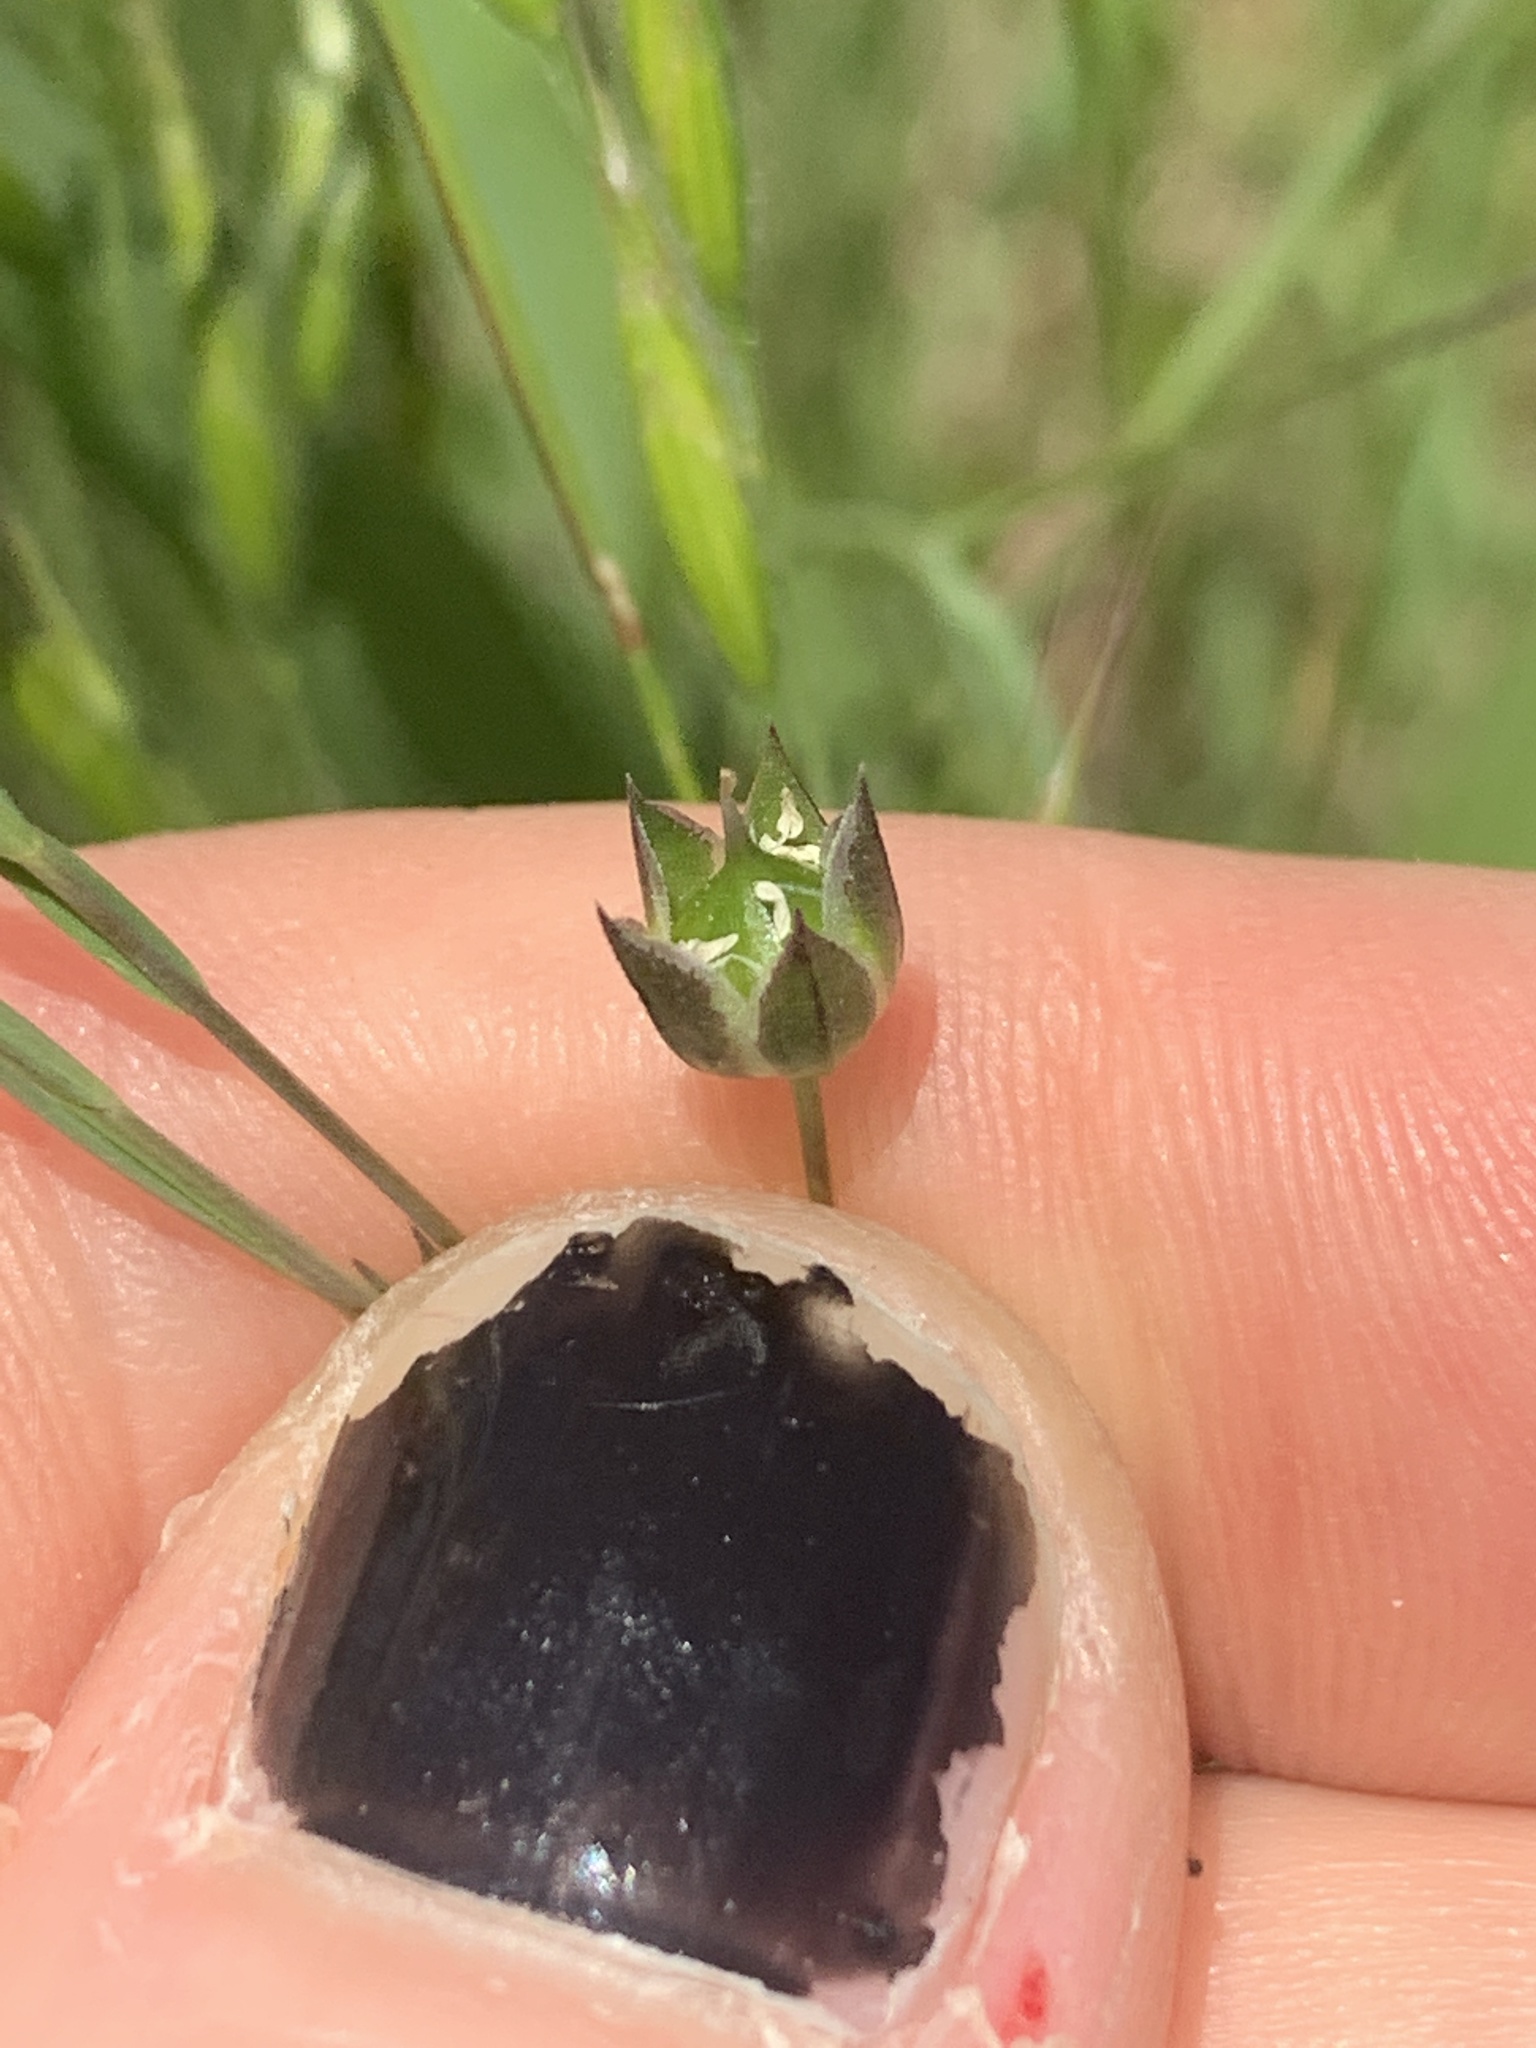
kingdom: Plantae
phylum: Tracheophyta
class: Magnoliopsida
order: Malpighiales
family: Linaceae
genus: Linum
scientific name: Linum bienne
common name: Pale flax
